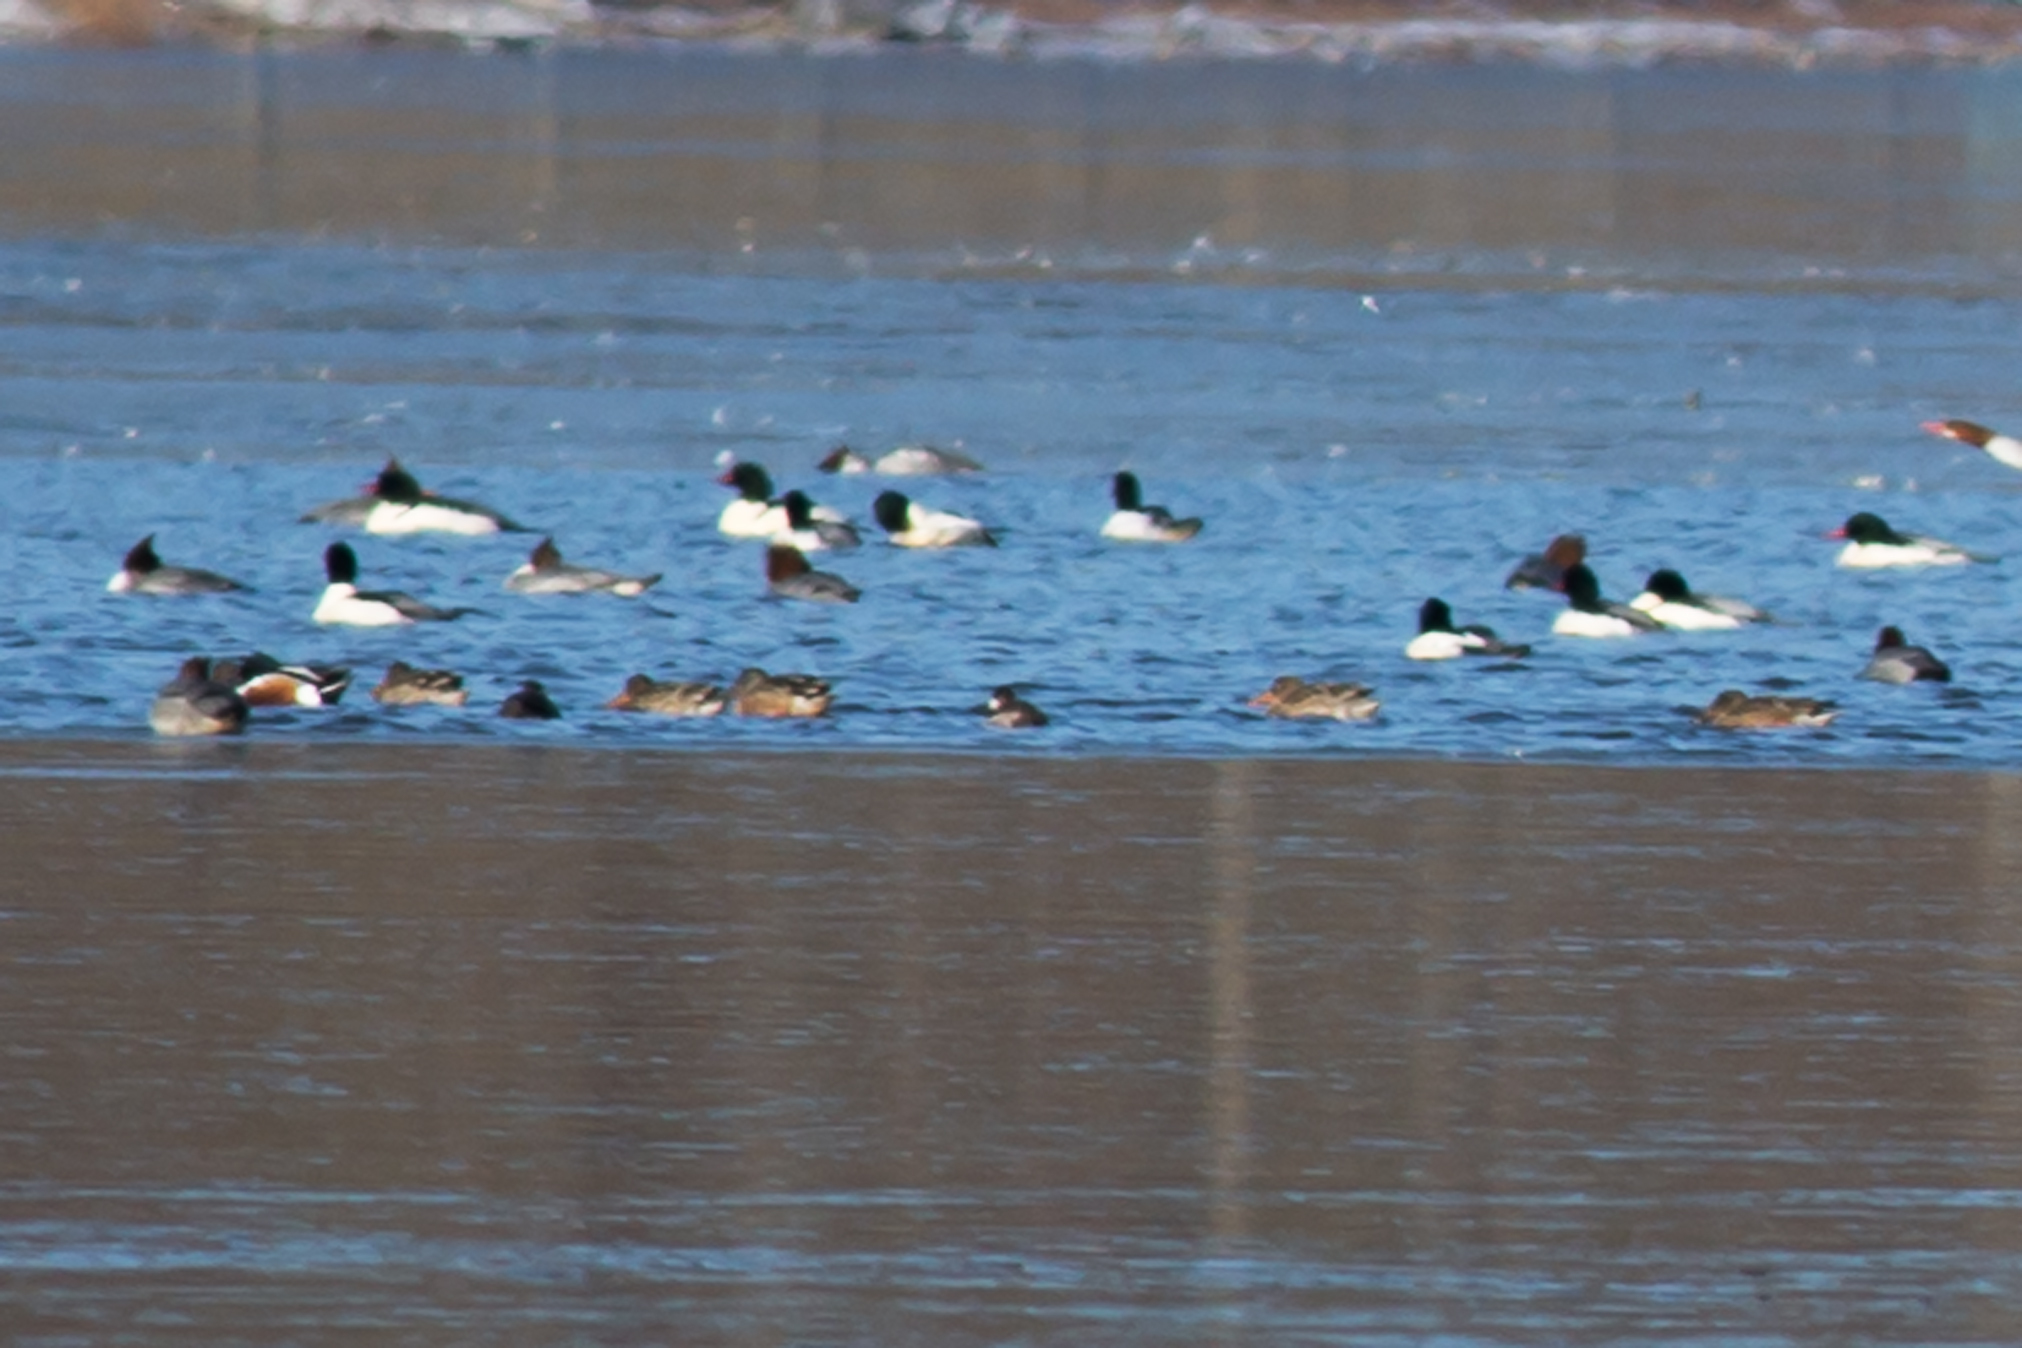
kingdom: Animalia
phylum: Chordata
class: Aves
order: Anseriformes
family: Anatidae
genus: Spatula
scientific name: Spatula clypeata
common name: Northern shoveler
